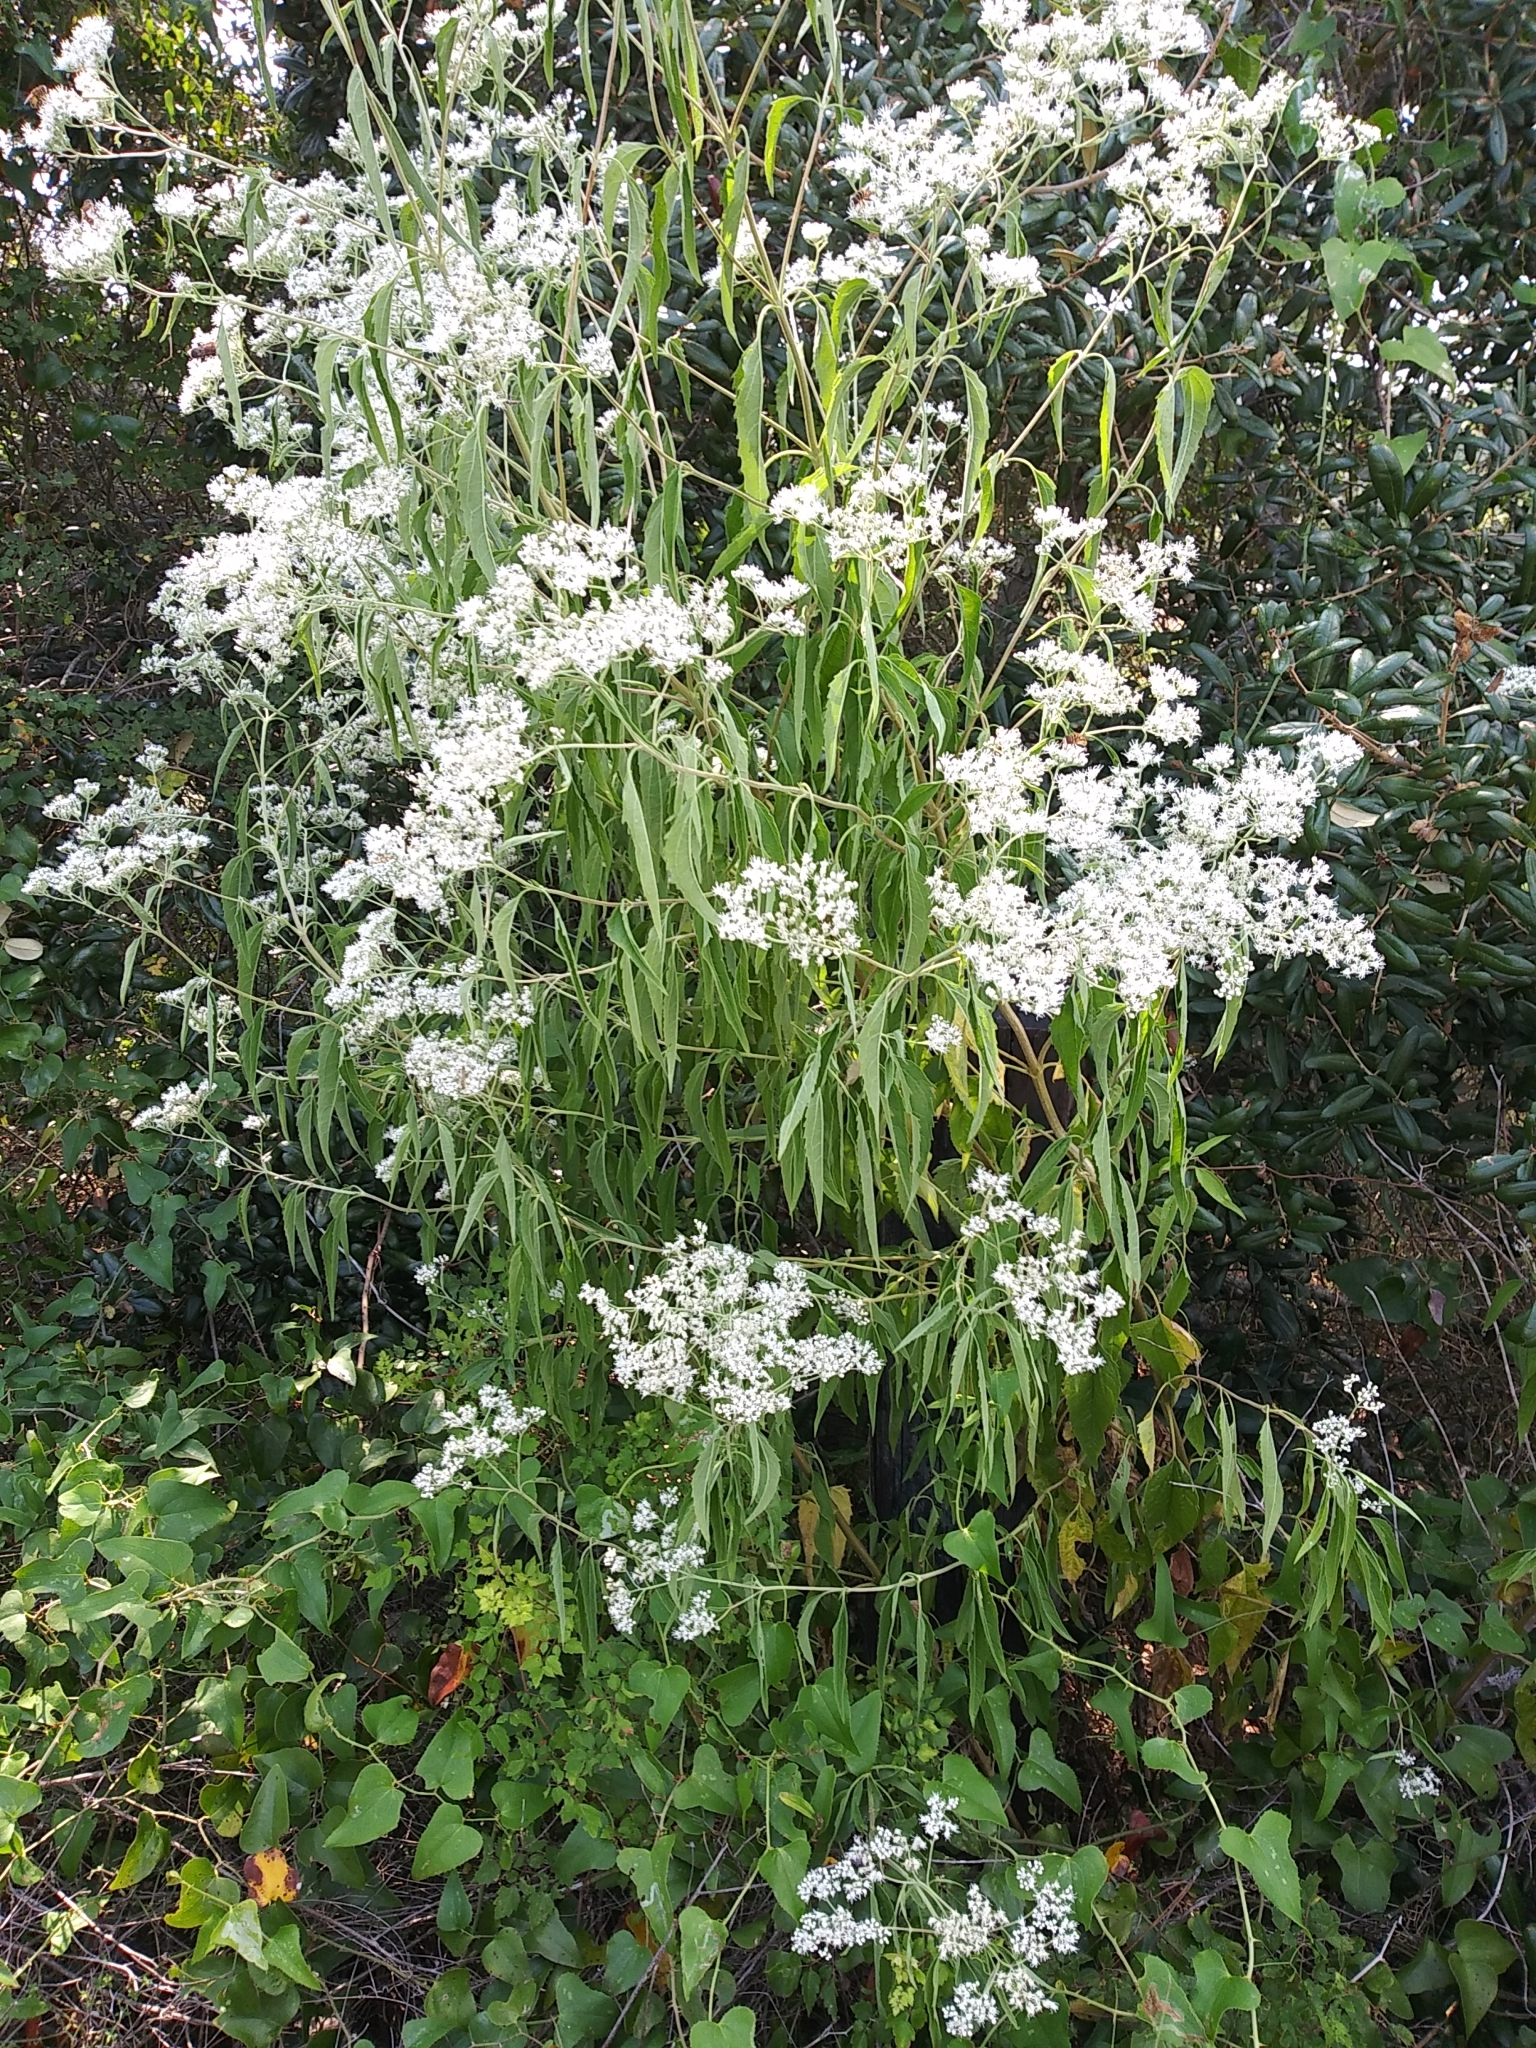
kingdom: Plantae
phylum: Tracheophyta
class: Magnoliopsida
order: Asterales
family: Asteraceae
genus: Eupatorium
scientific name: Eupatorium serotinum
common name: Late boneset
